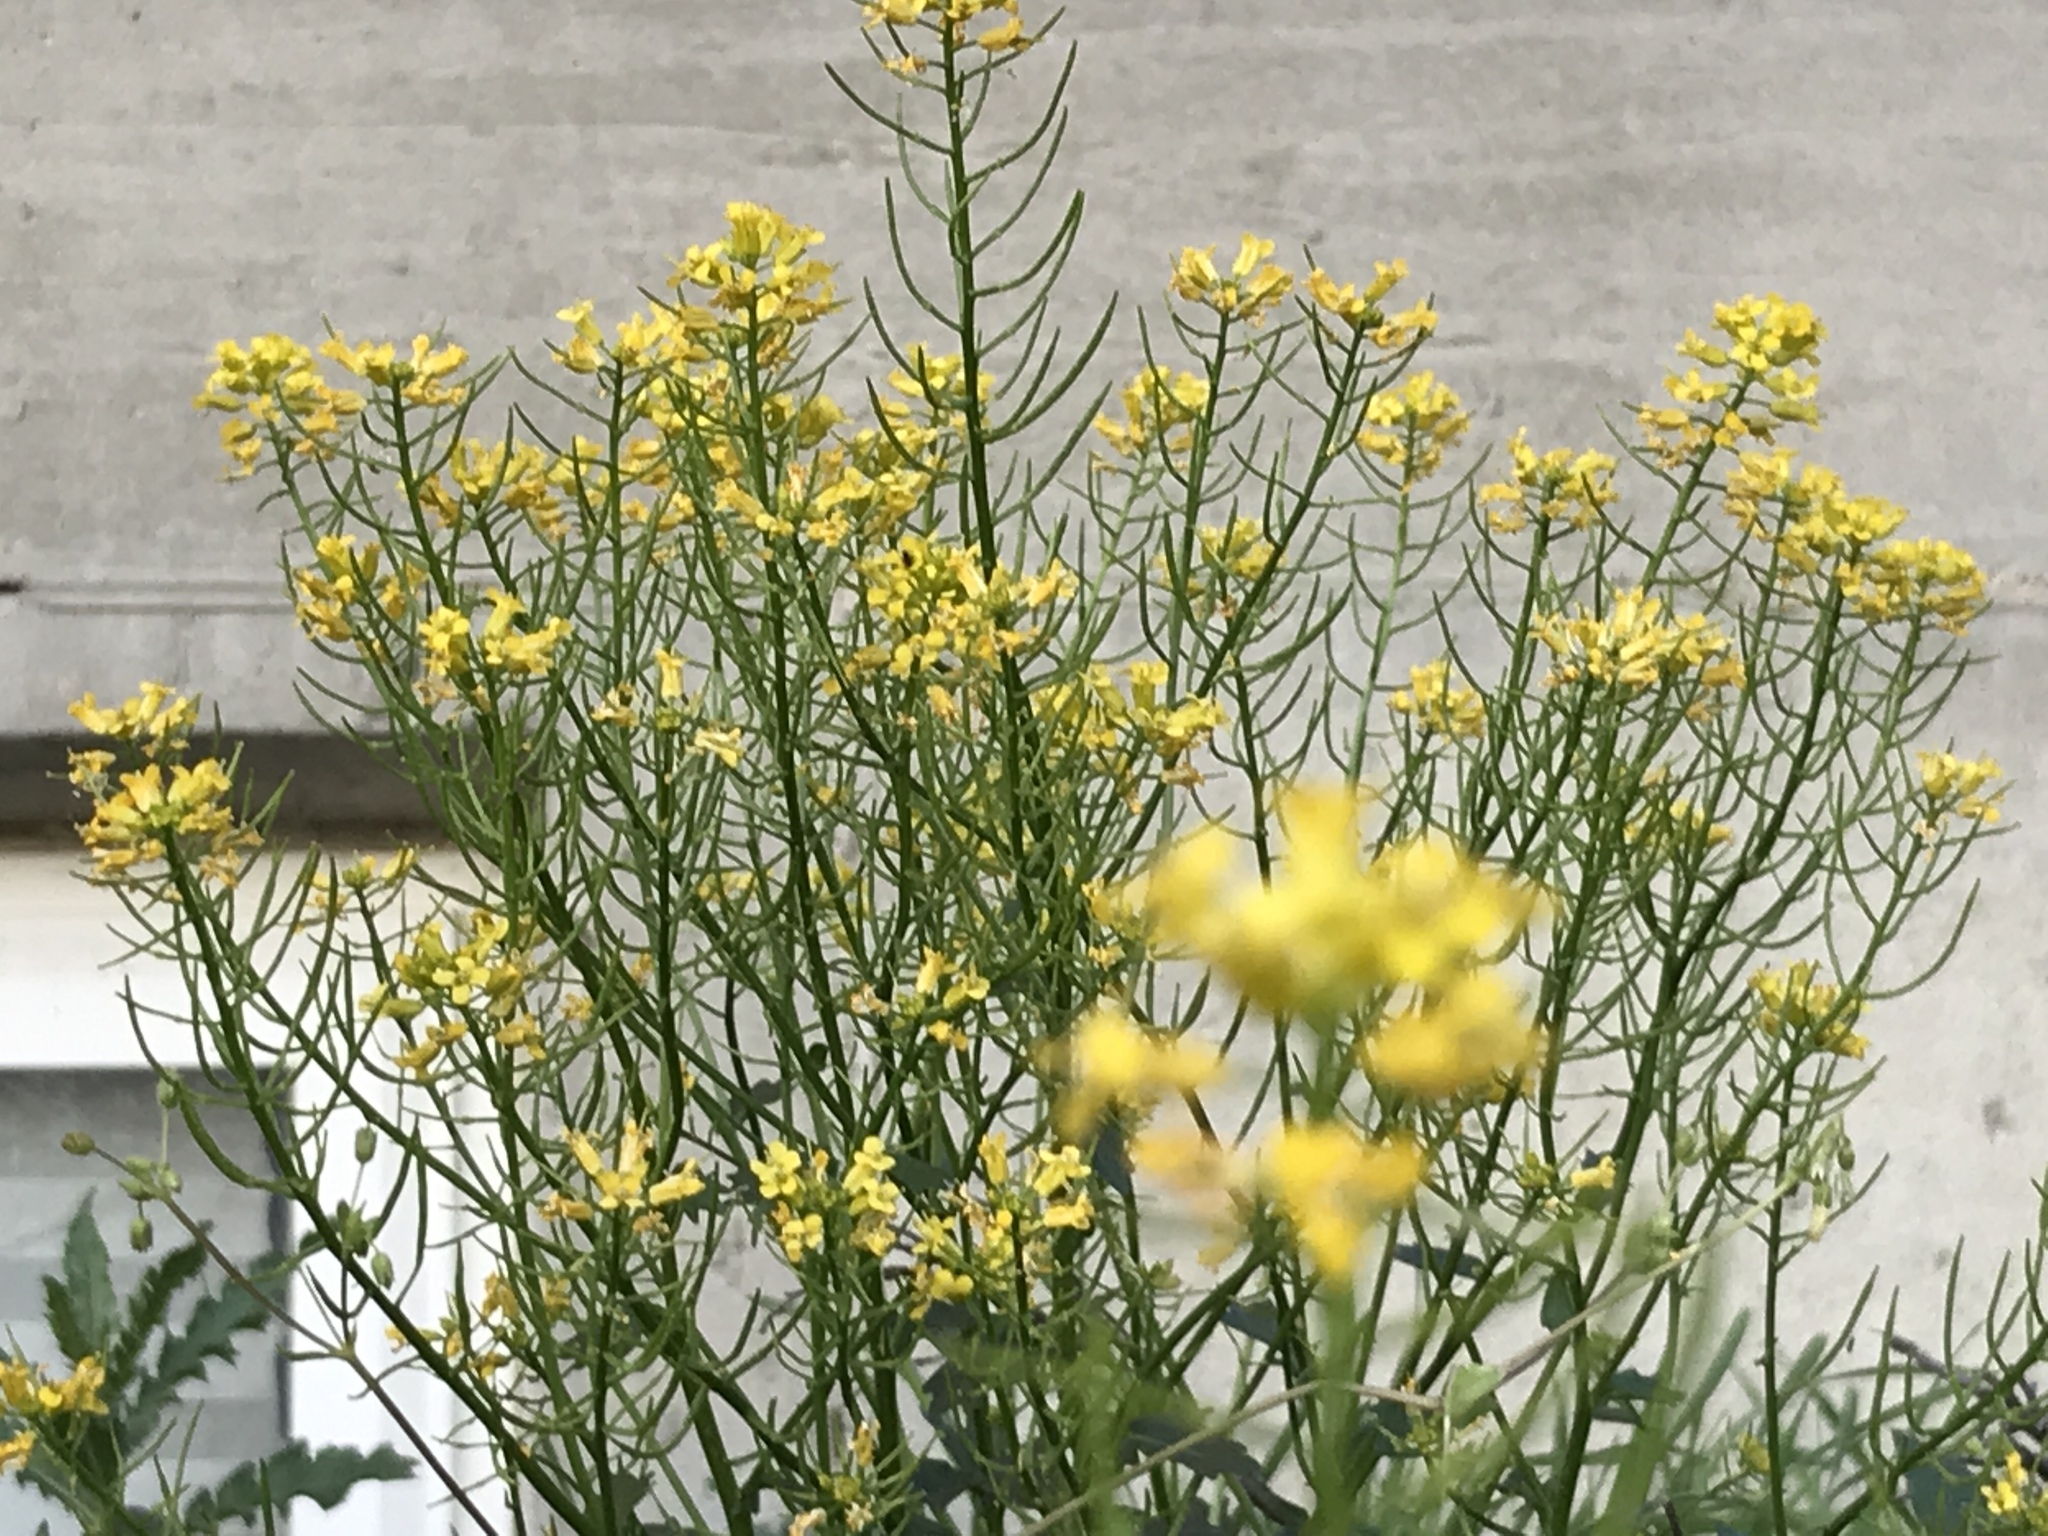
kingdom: Plantae
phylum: Tracheophyta
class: Magnoliopsida
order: Brassicales
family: Brassicaceae
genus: Barbarea
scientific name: Barbarea vulgaris
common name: Cressy-greens
